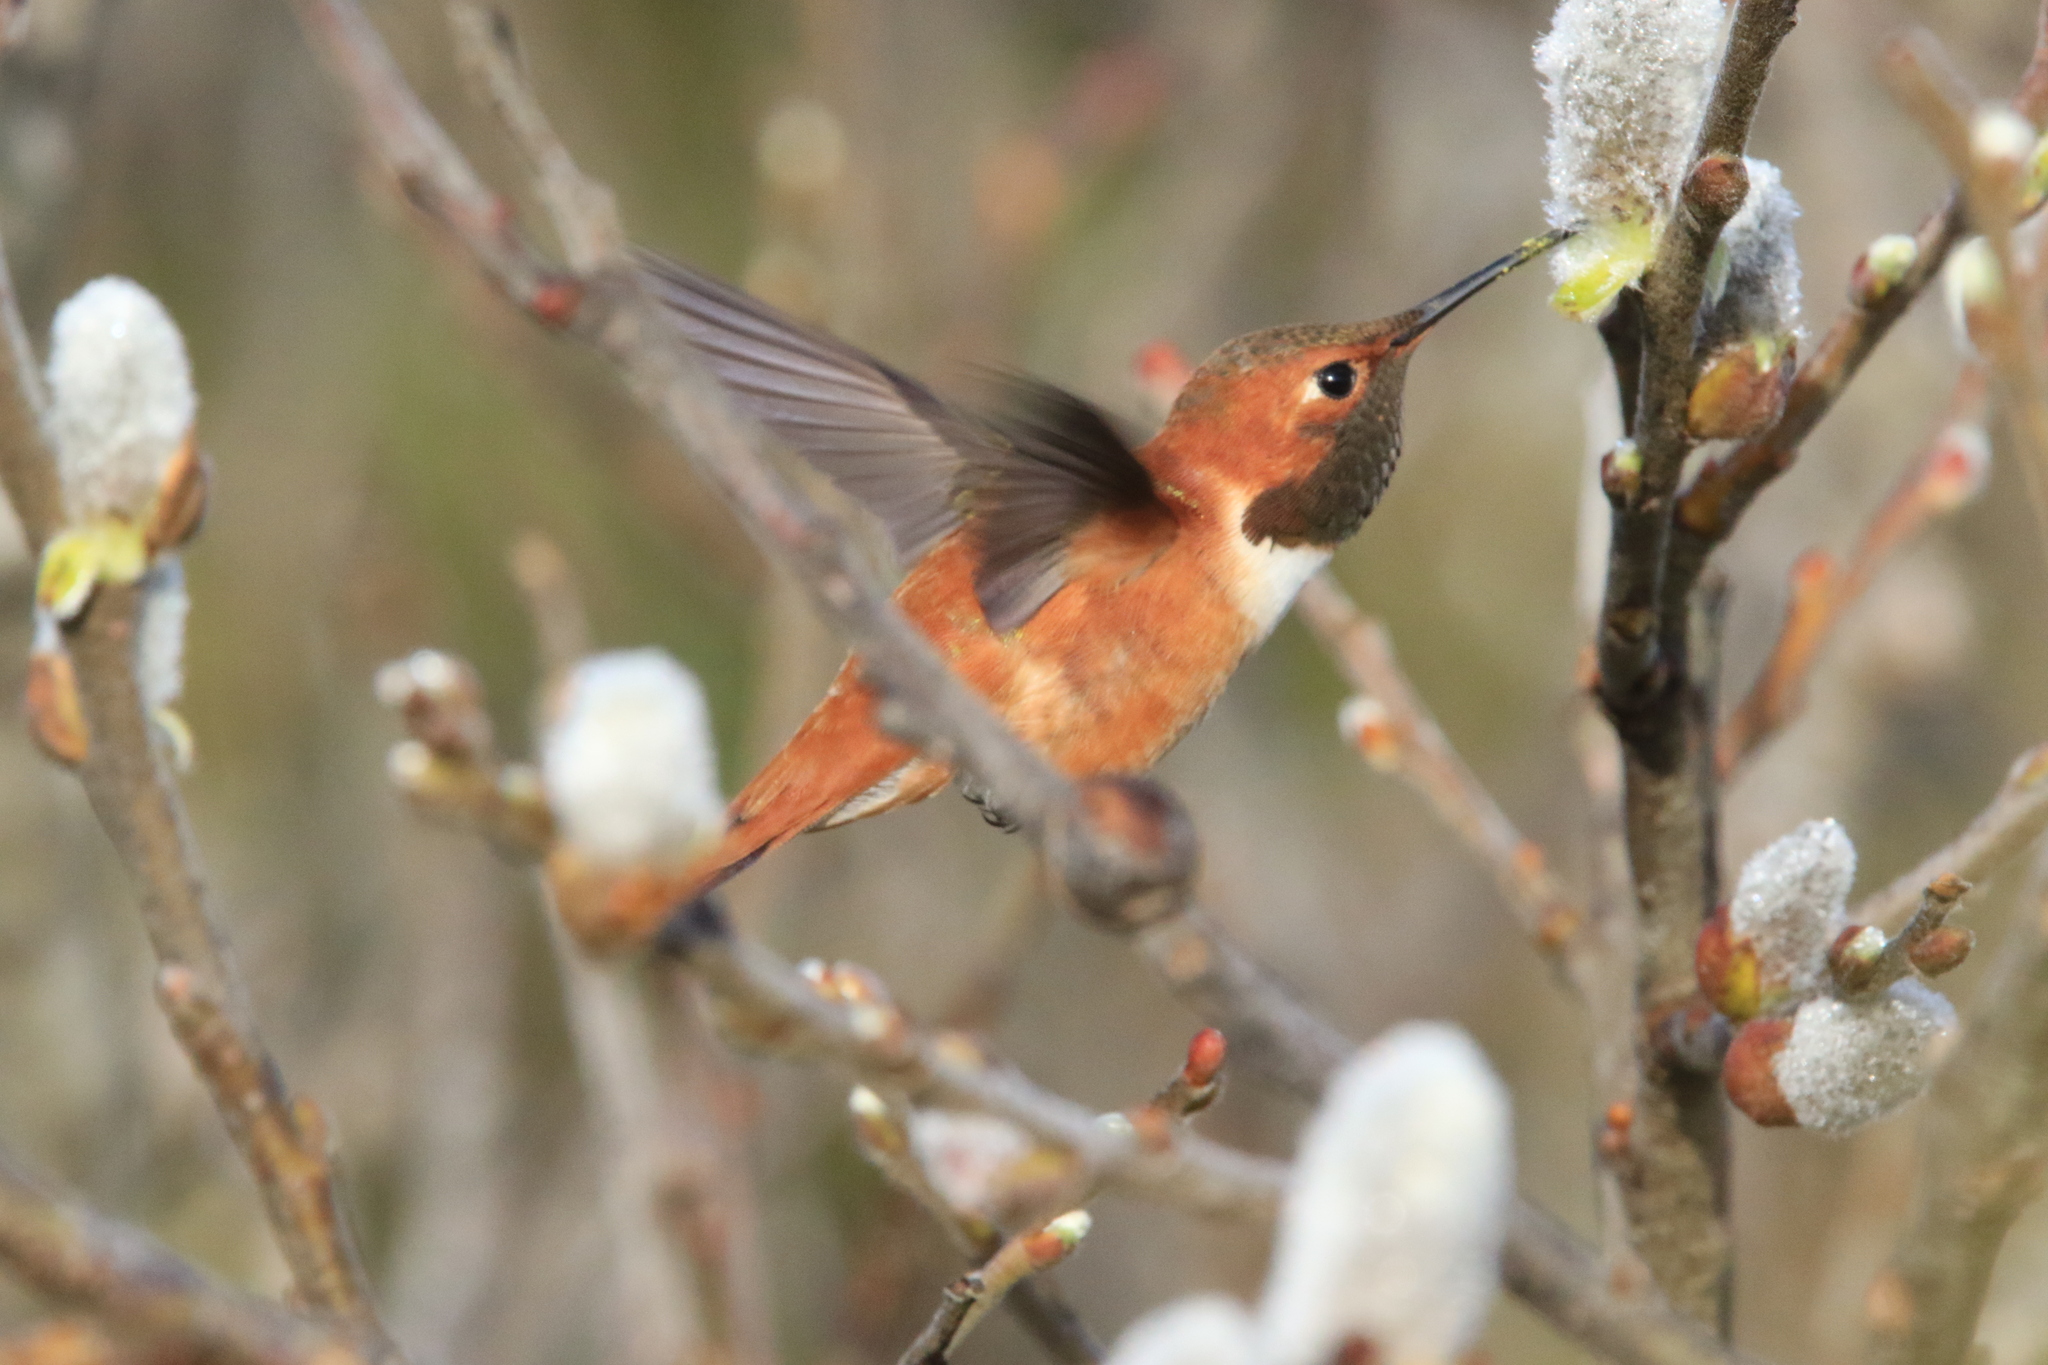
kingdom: Animalia
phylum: Chordata
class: Aves
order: Apodiformes
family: Trochilidae
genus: Selasphorus
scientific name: Selasphorus rufus
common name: Rufous hummingbird
